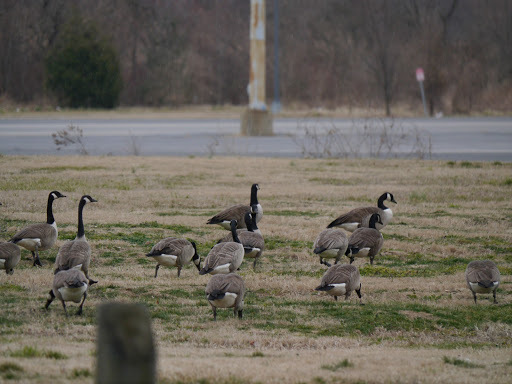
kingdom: Animalia
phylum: Chordata
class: Aves
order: Anseriformes
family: Anatidae
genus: Branta
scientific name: Branta canadensis
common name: Canada goose
